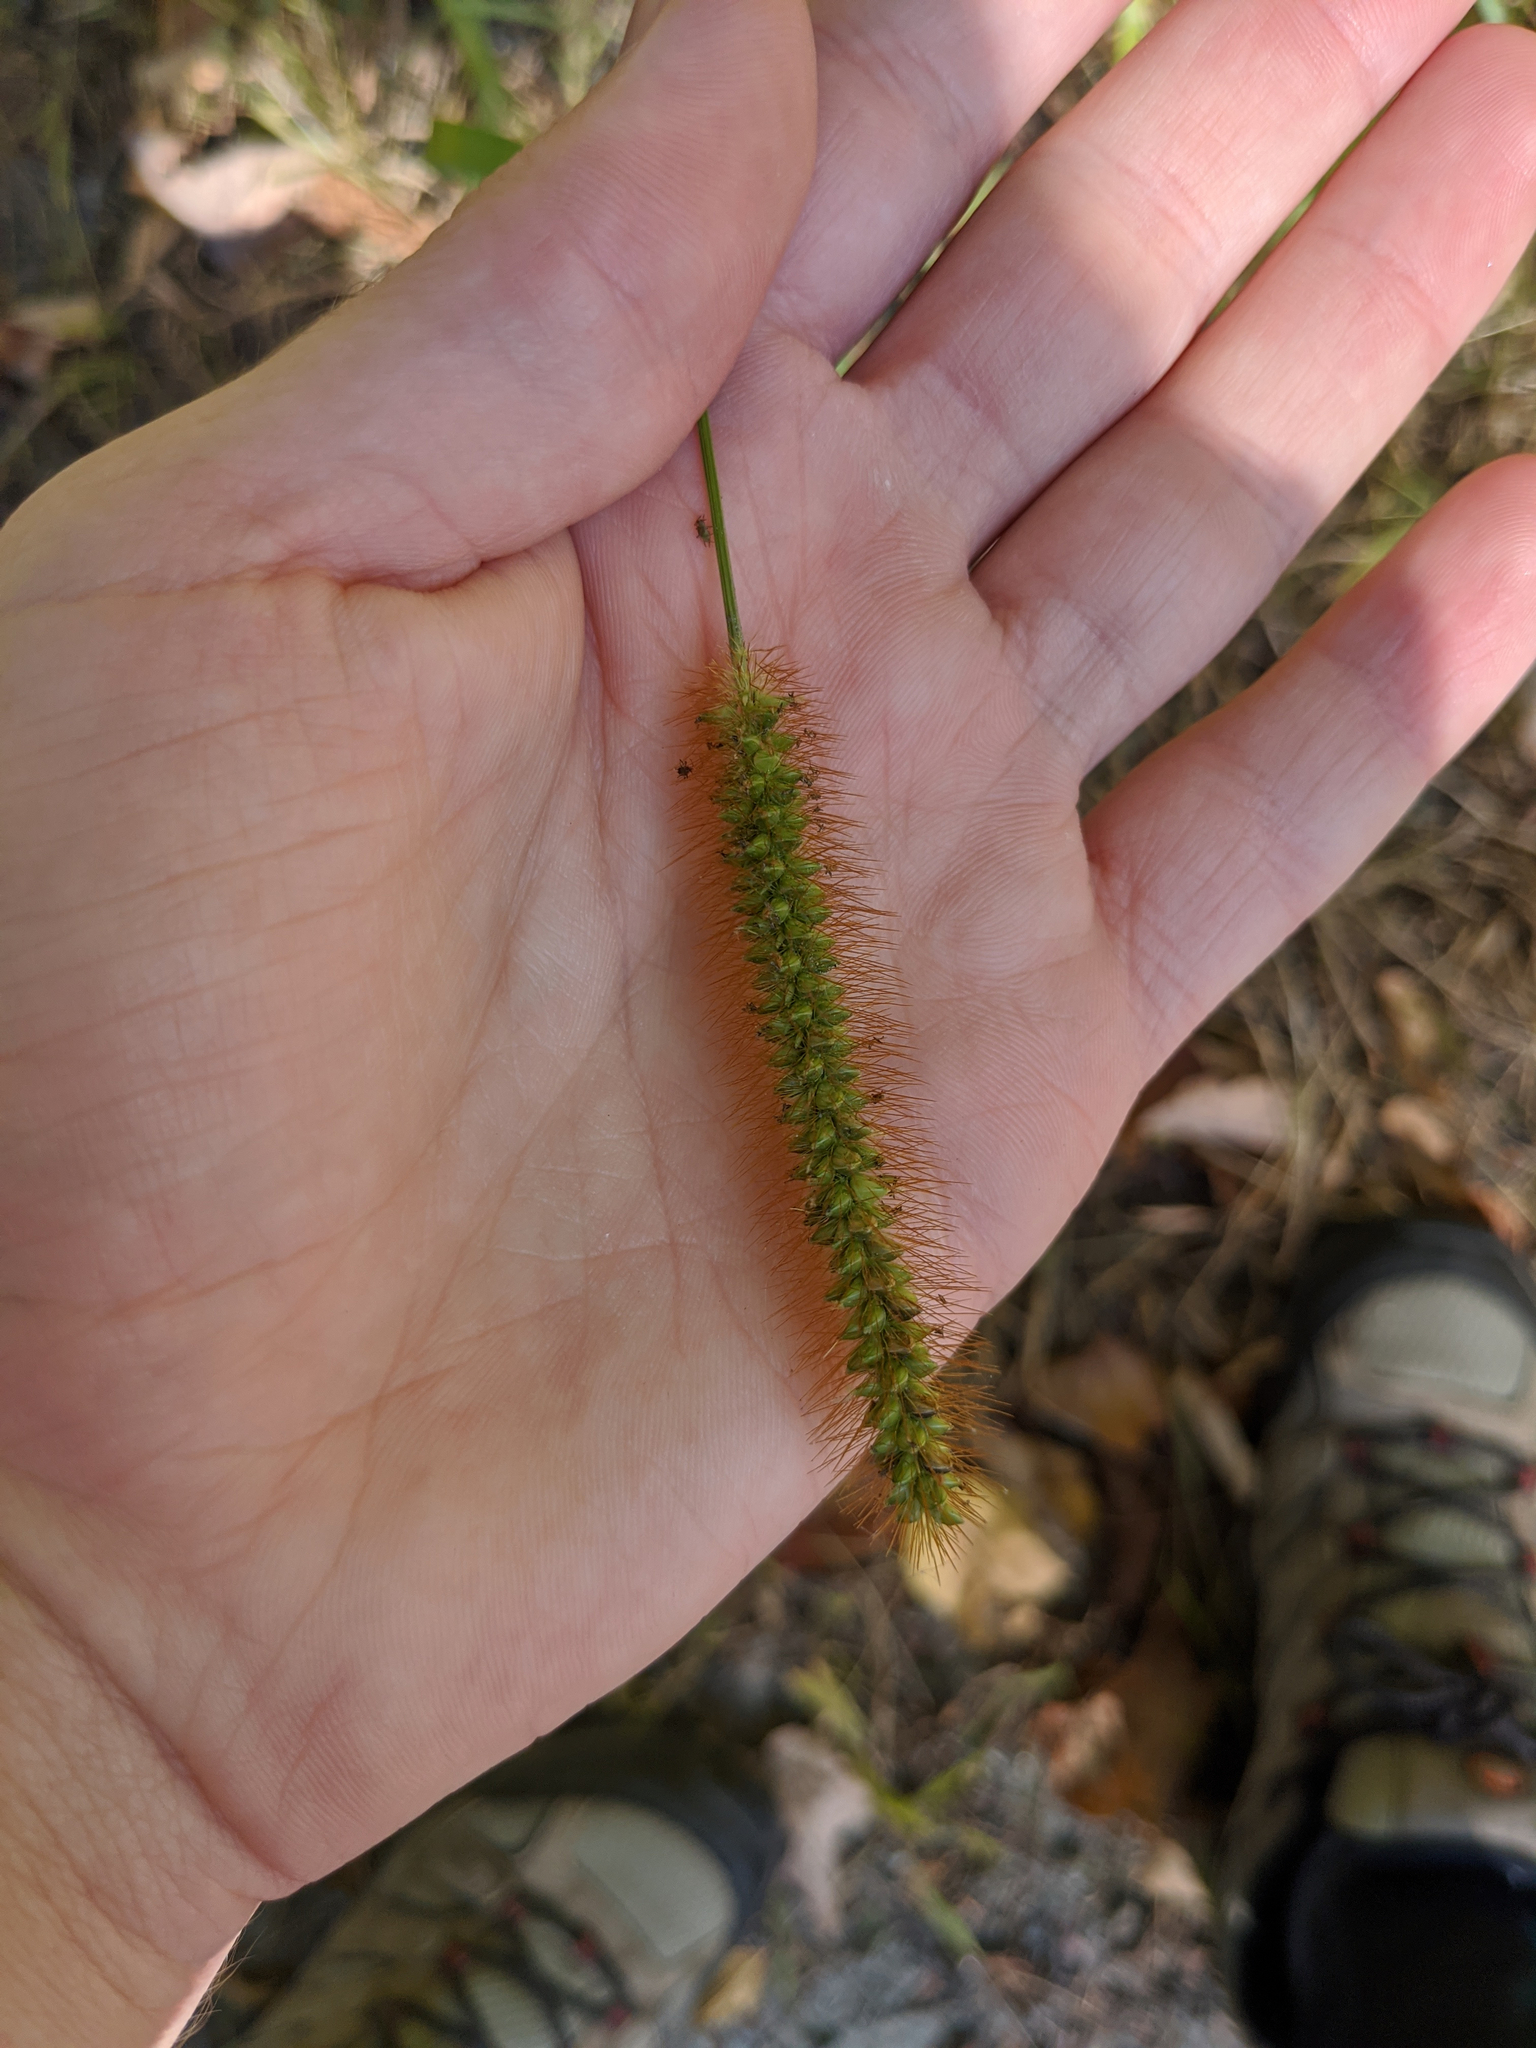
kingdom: Plantae
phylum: Tracheophyta
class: Liliopsida
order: Poales
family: Poaceae
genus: Setaria
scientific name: Setaria pumila
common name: Yellow bristle-grass
